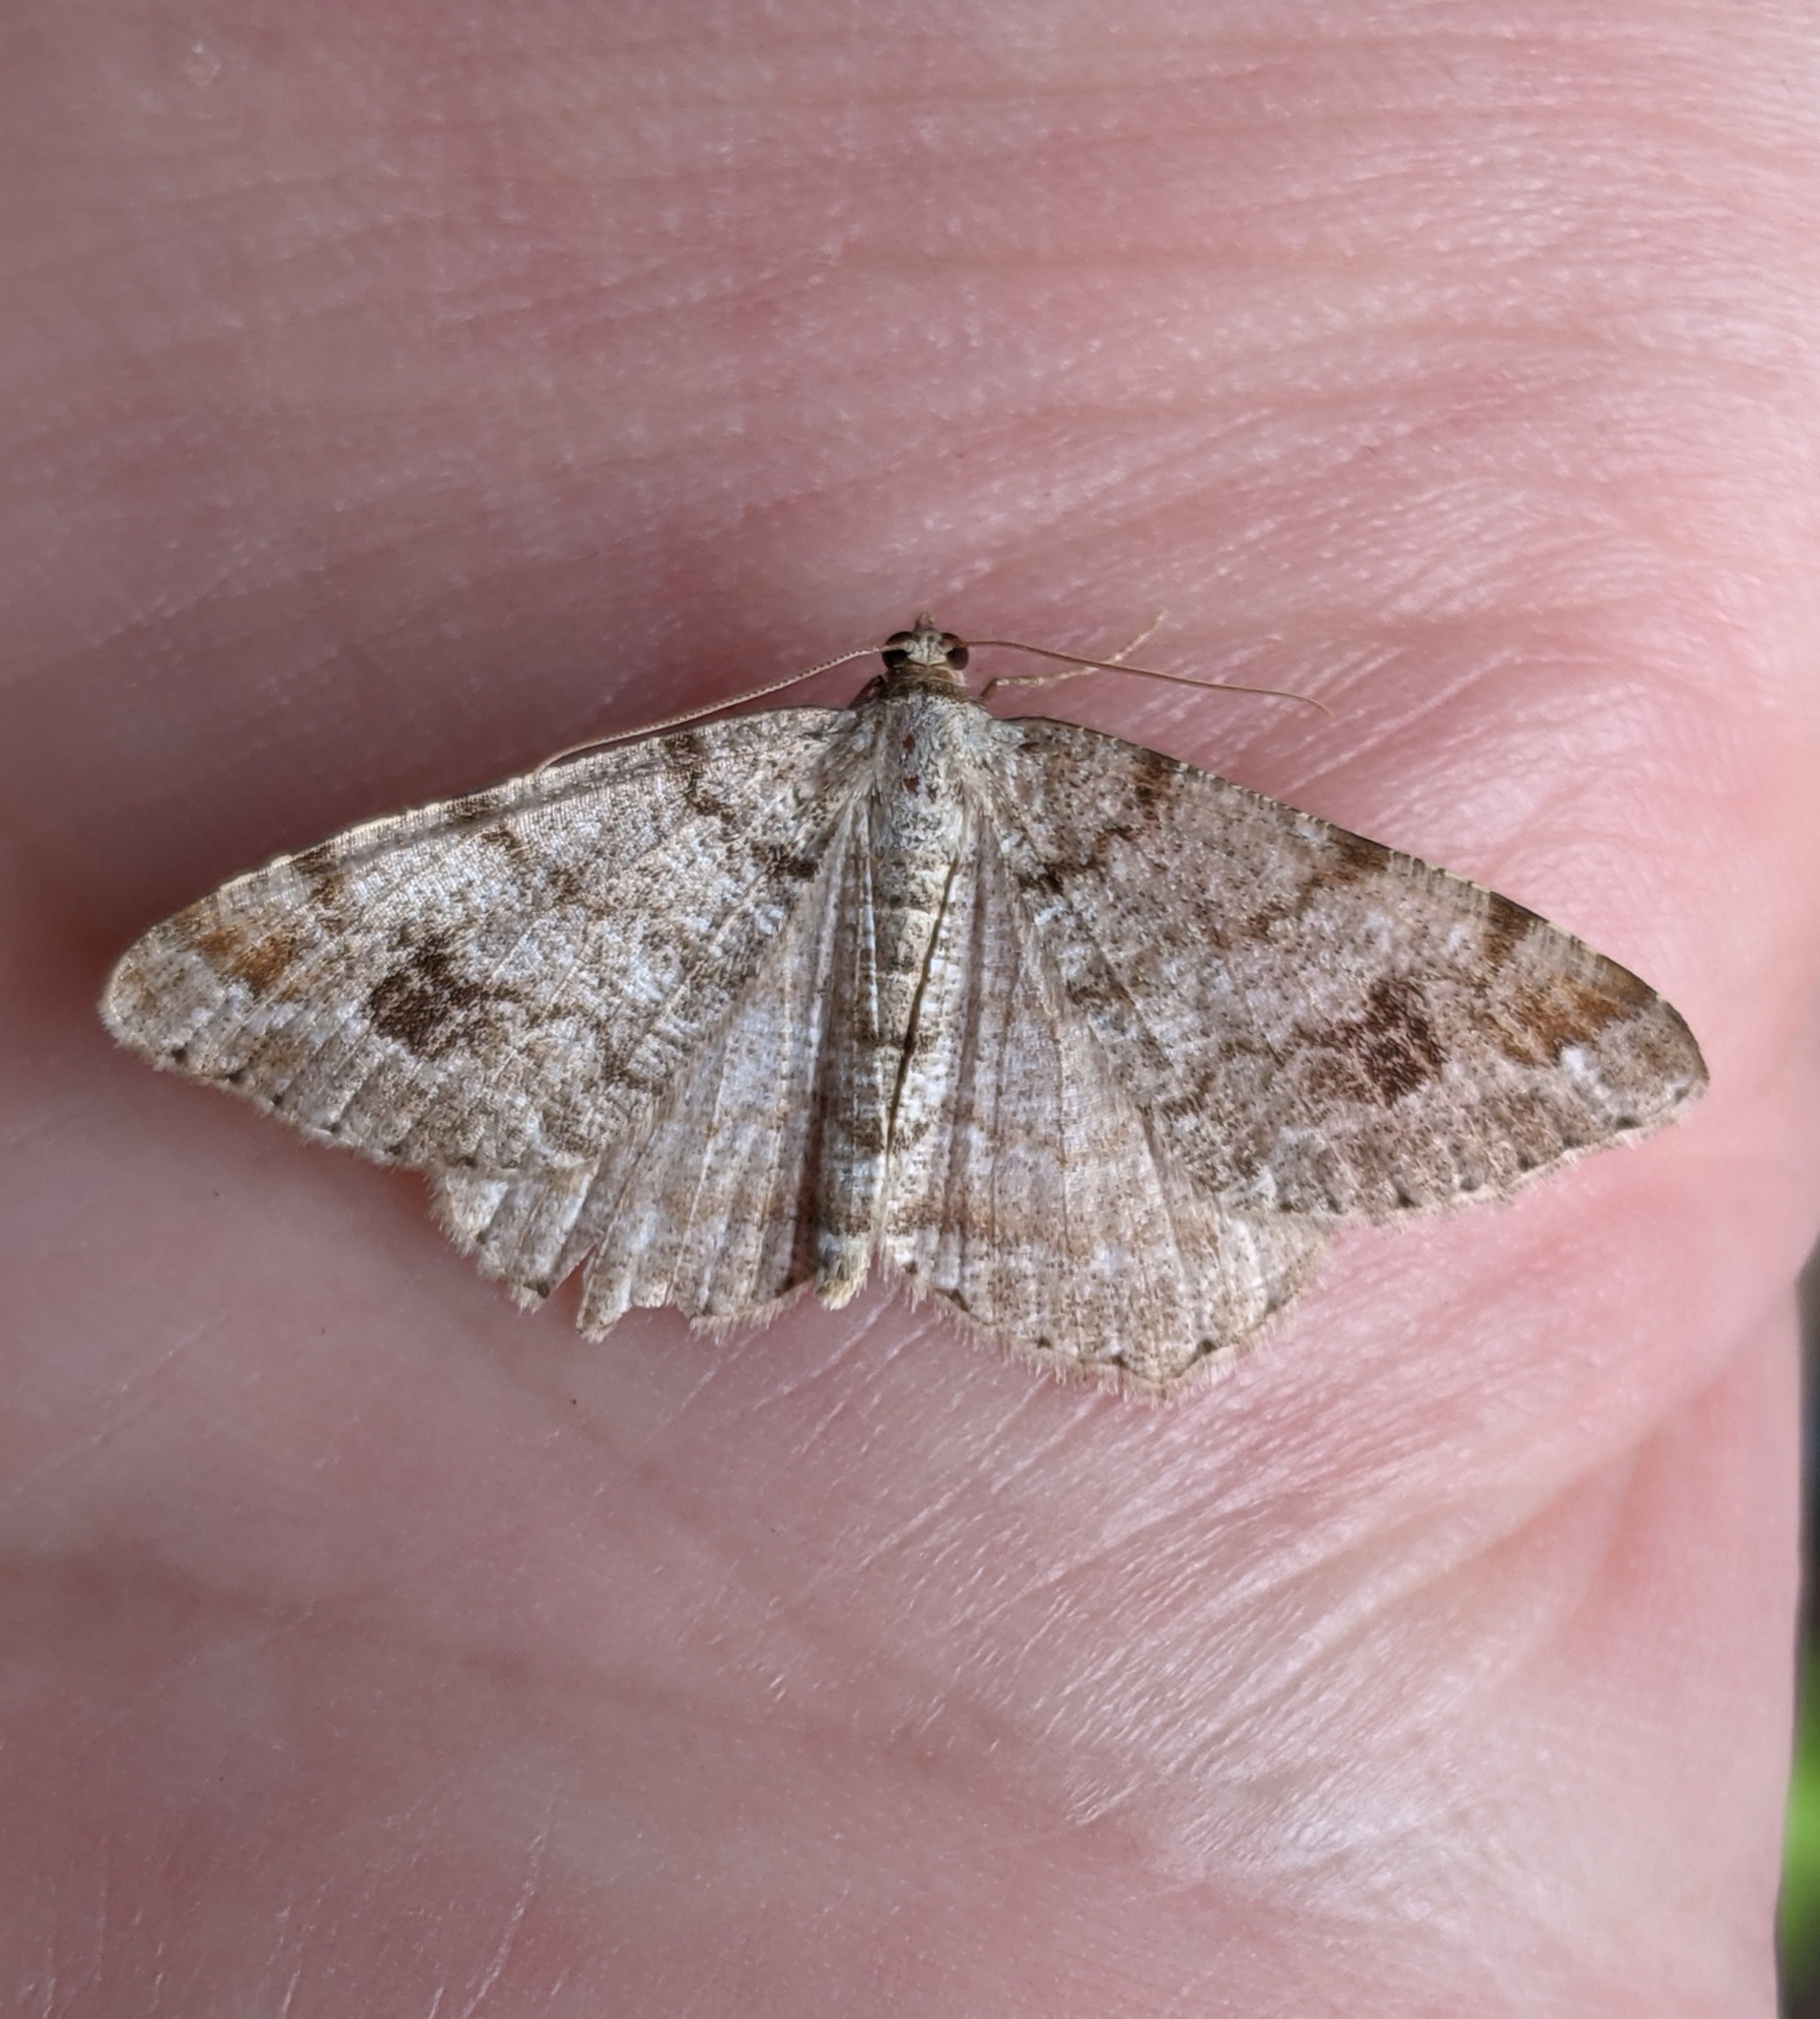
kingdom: Animalia
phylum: Arthropoda
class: Insecta
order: Lepidoptera
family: Geometridae
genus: Macaria
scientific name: Macaria signaria
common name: Dusky peacock
